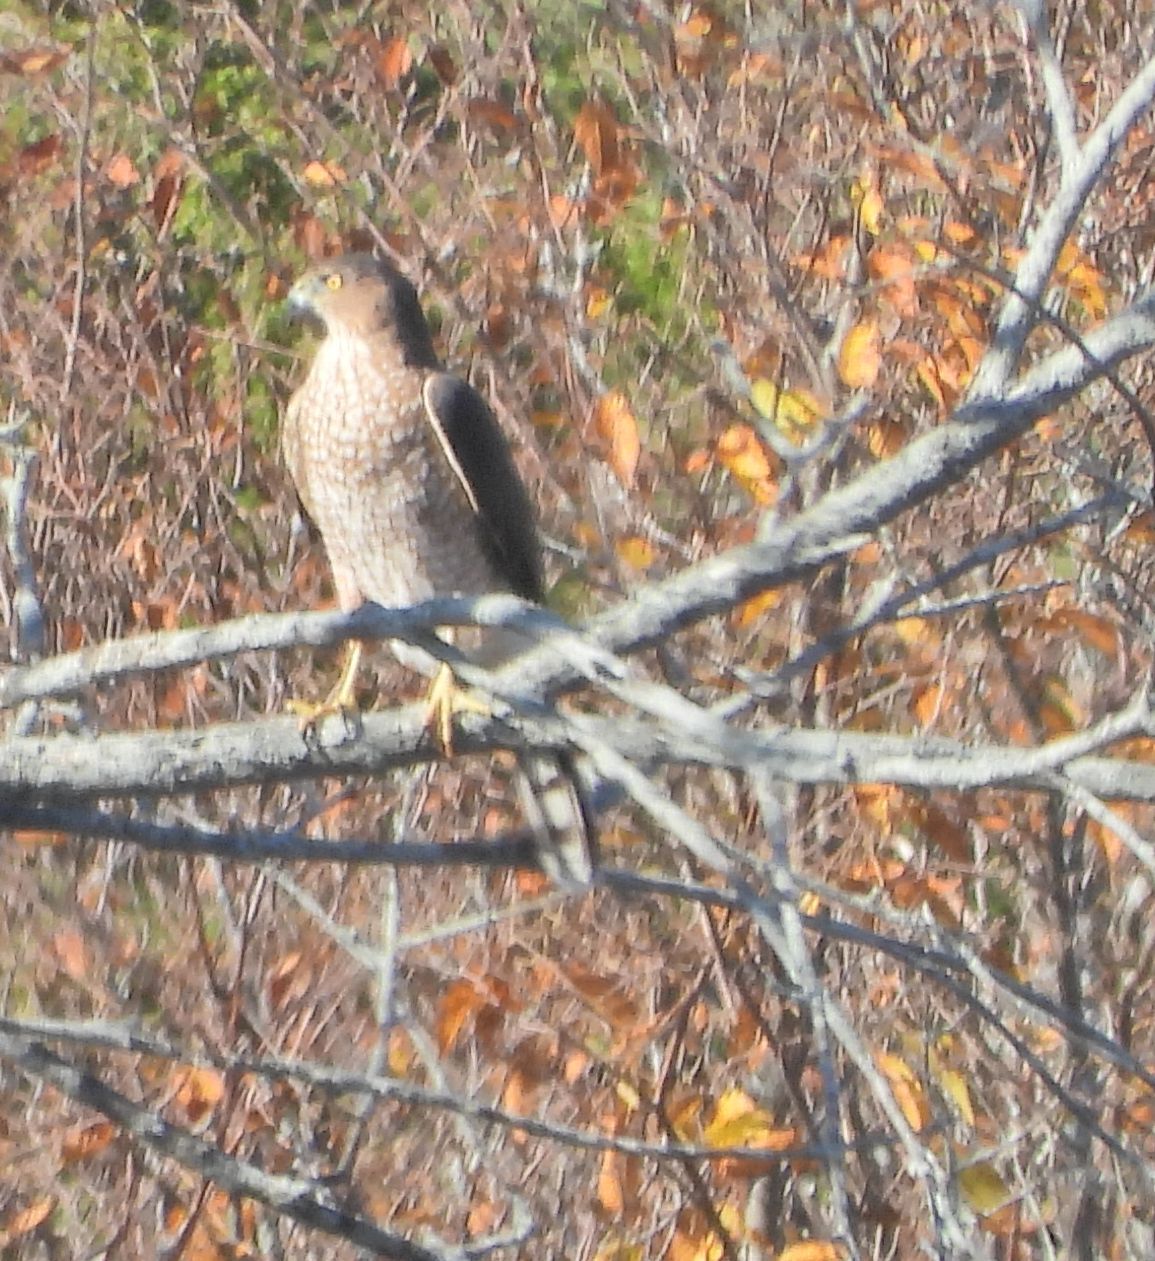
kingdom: Animalia
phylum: Chordata
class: Aves
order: Accipitriformes
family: Accipitridae
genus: Accipiter
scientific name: Accipiter cooperii
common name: Cooper's hawk
